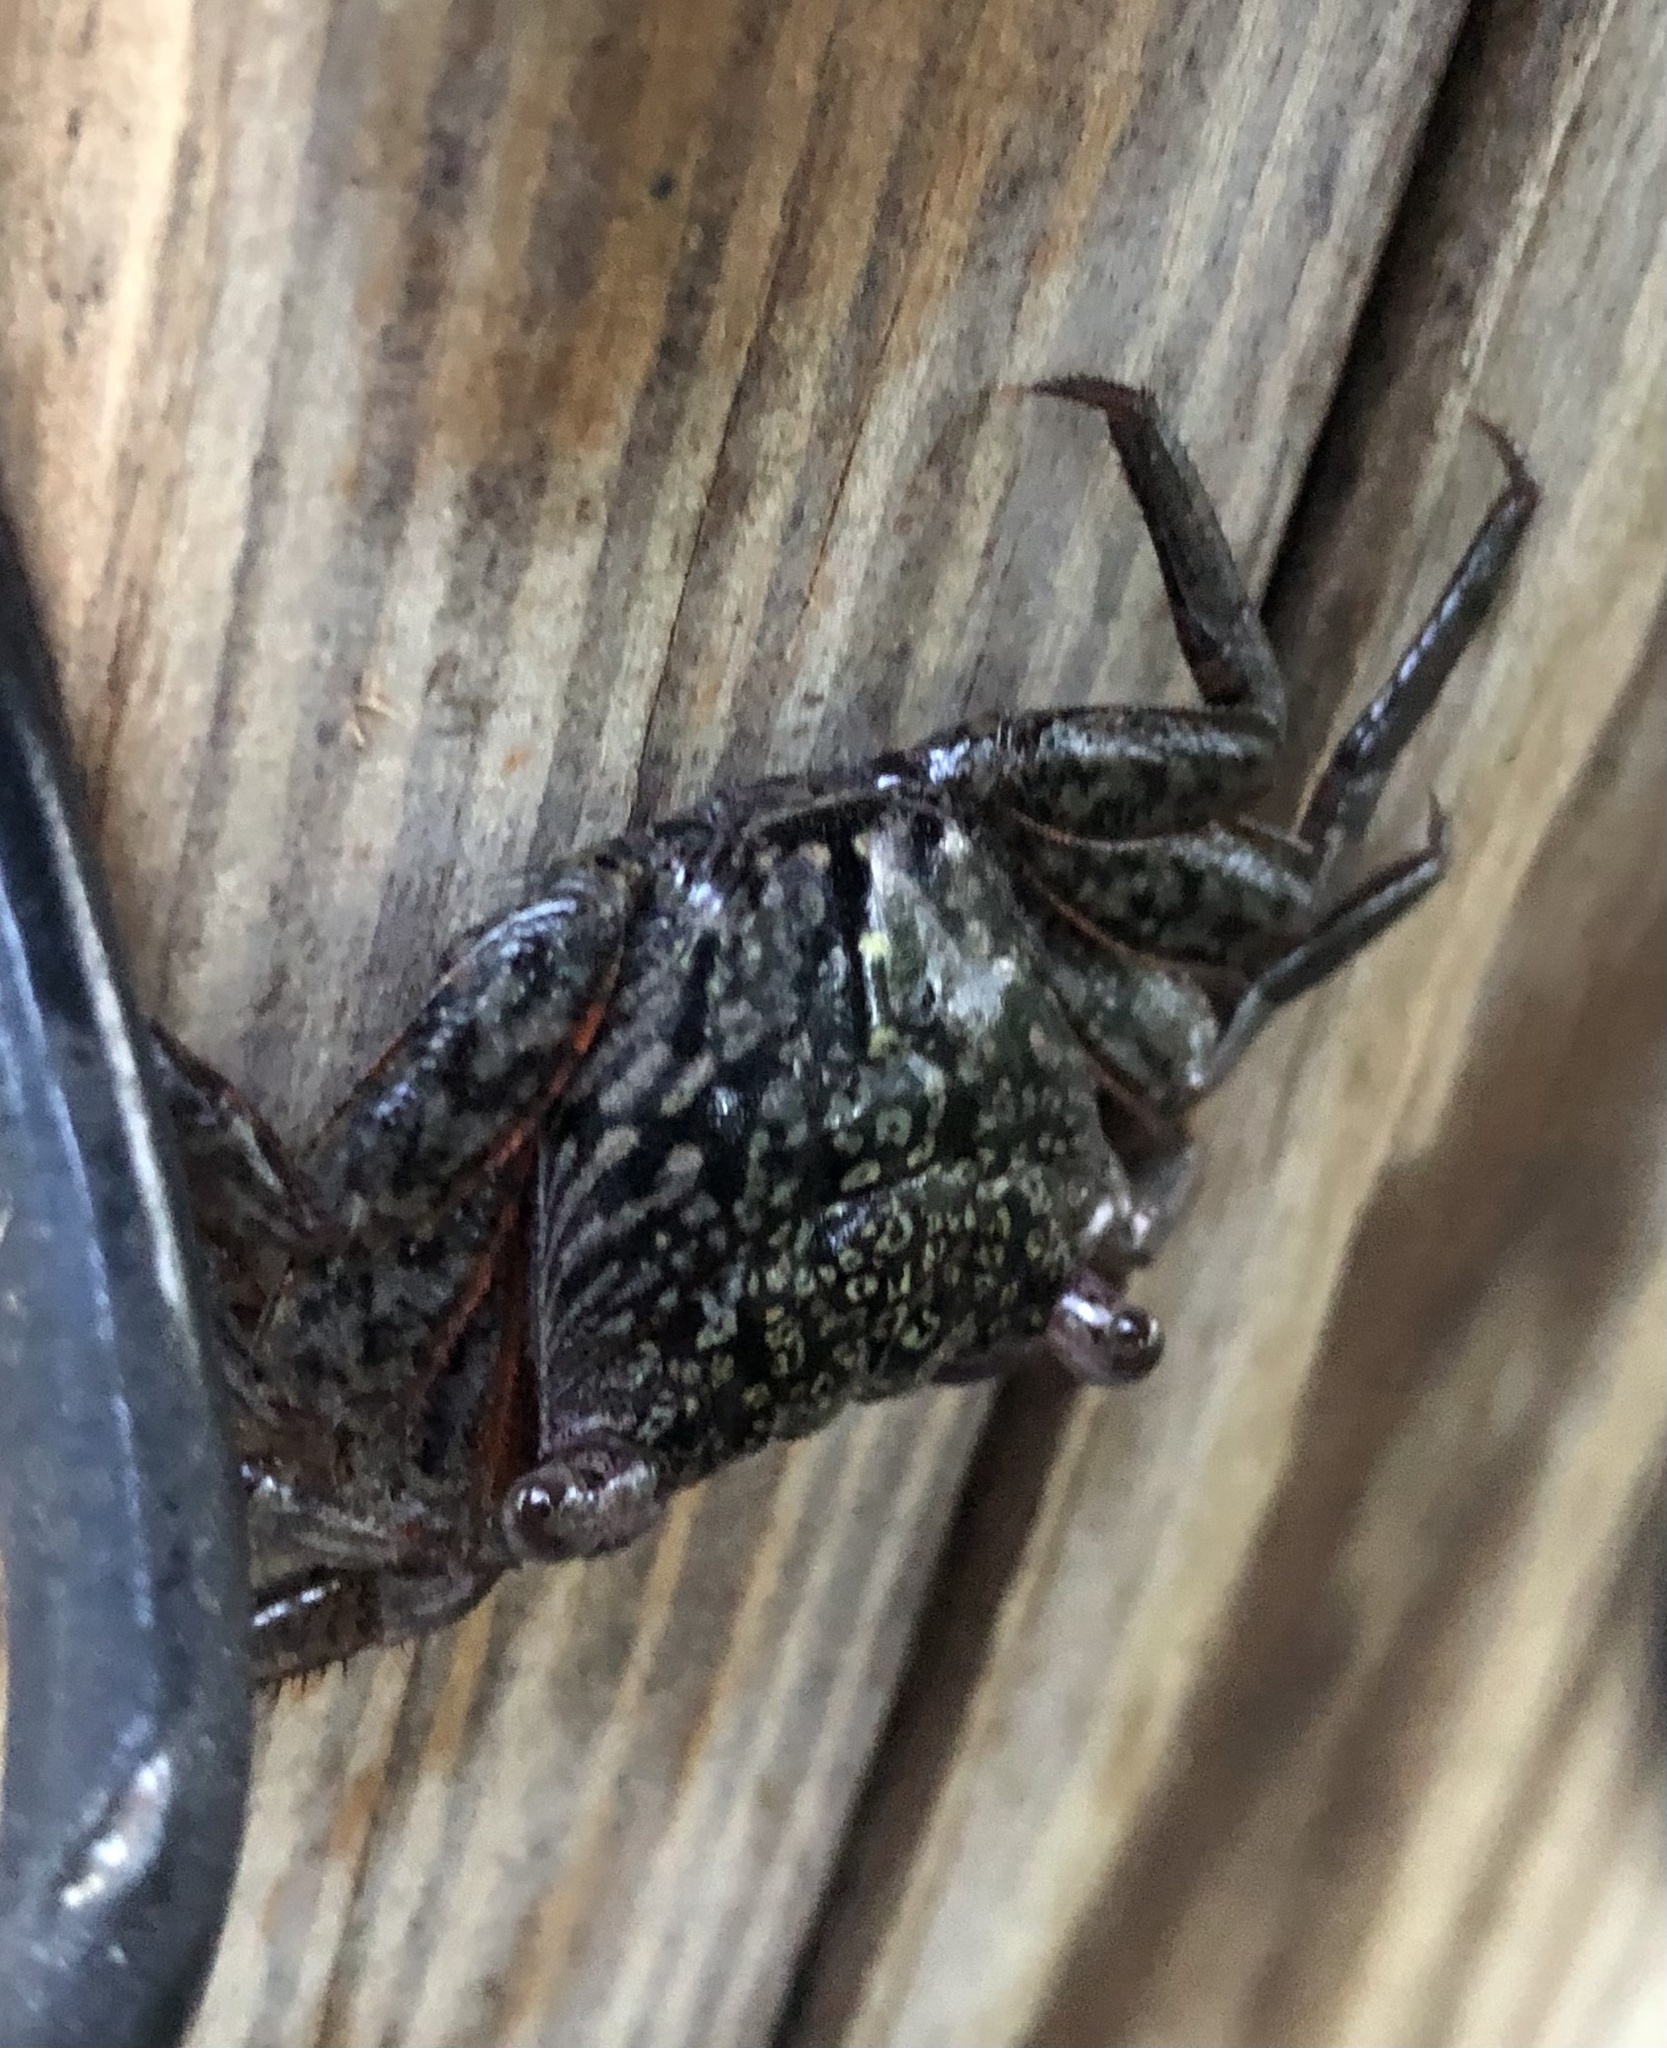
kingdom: Animalia
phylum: Arthropoda
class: Malacostraca
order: Decapoda
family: Sesarmidae
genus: Aratus
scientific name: Aratus pisonii
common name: Mangrove crab
